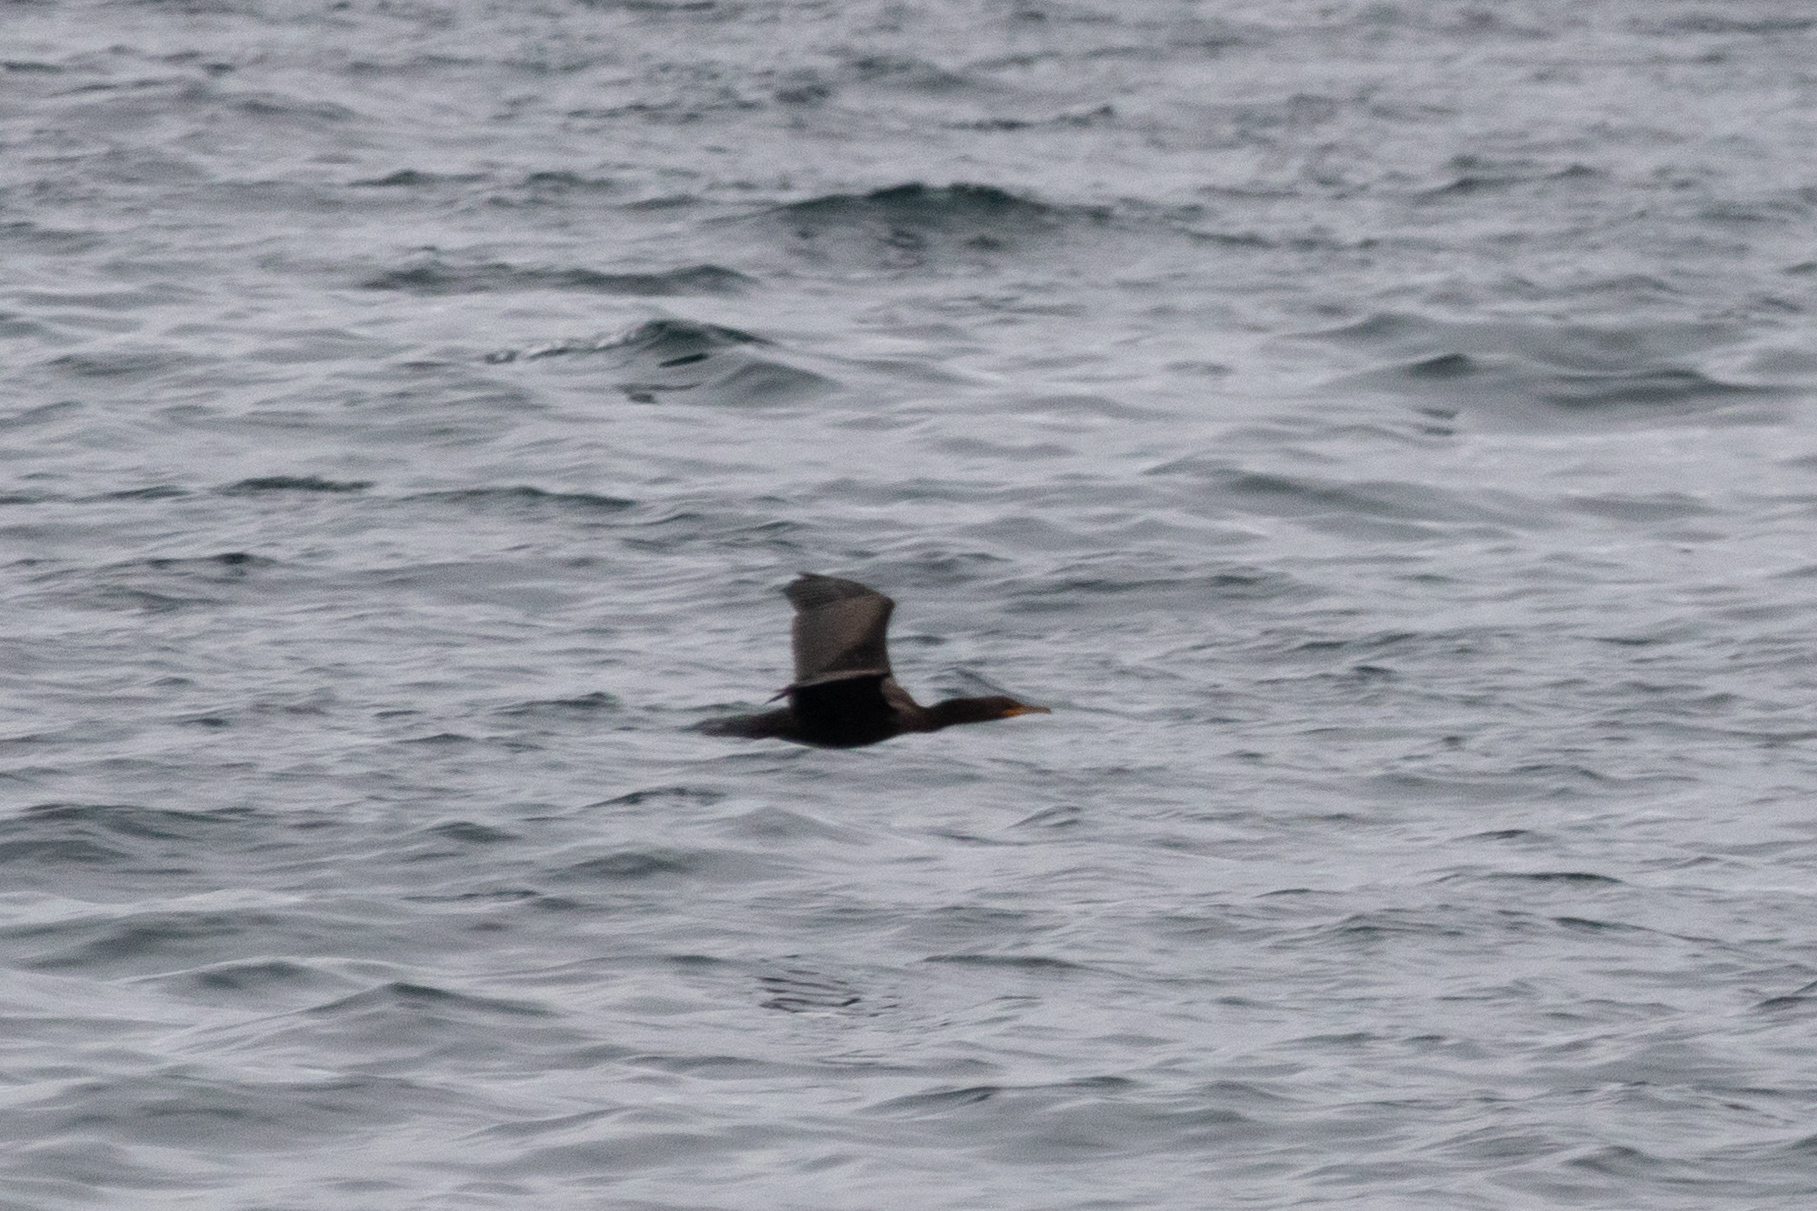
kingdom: Animalia
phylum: Chordata
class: Aves
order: Suliformes
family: Phalacrocoracidae
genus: Phalacrocorax
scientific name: Phalacrocorax auritus
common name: Double-crested cormorant
